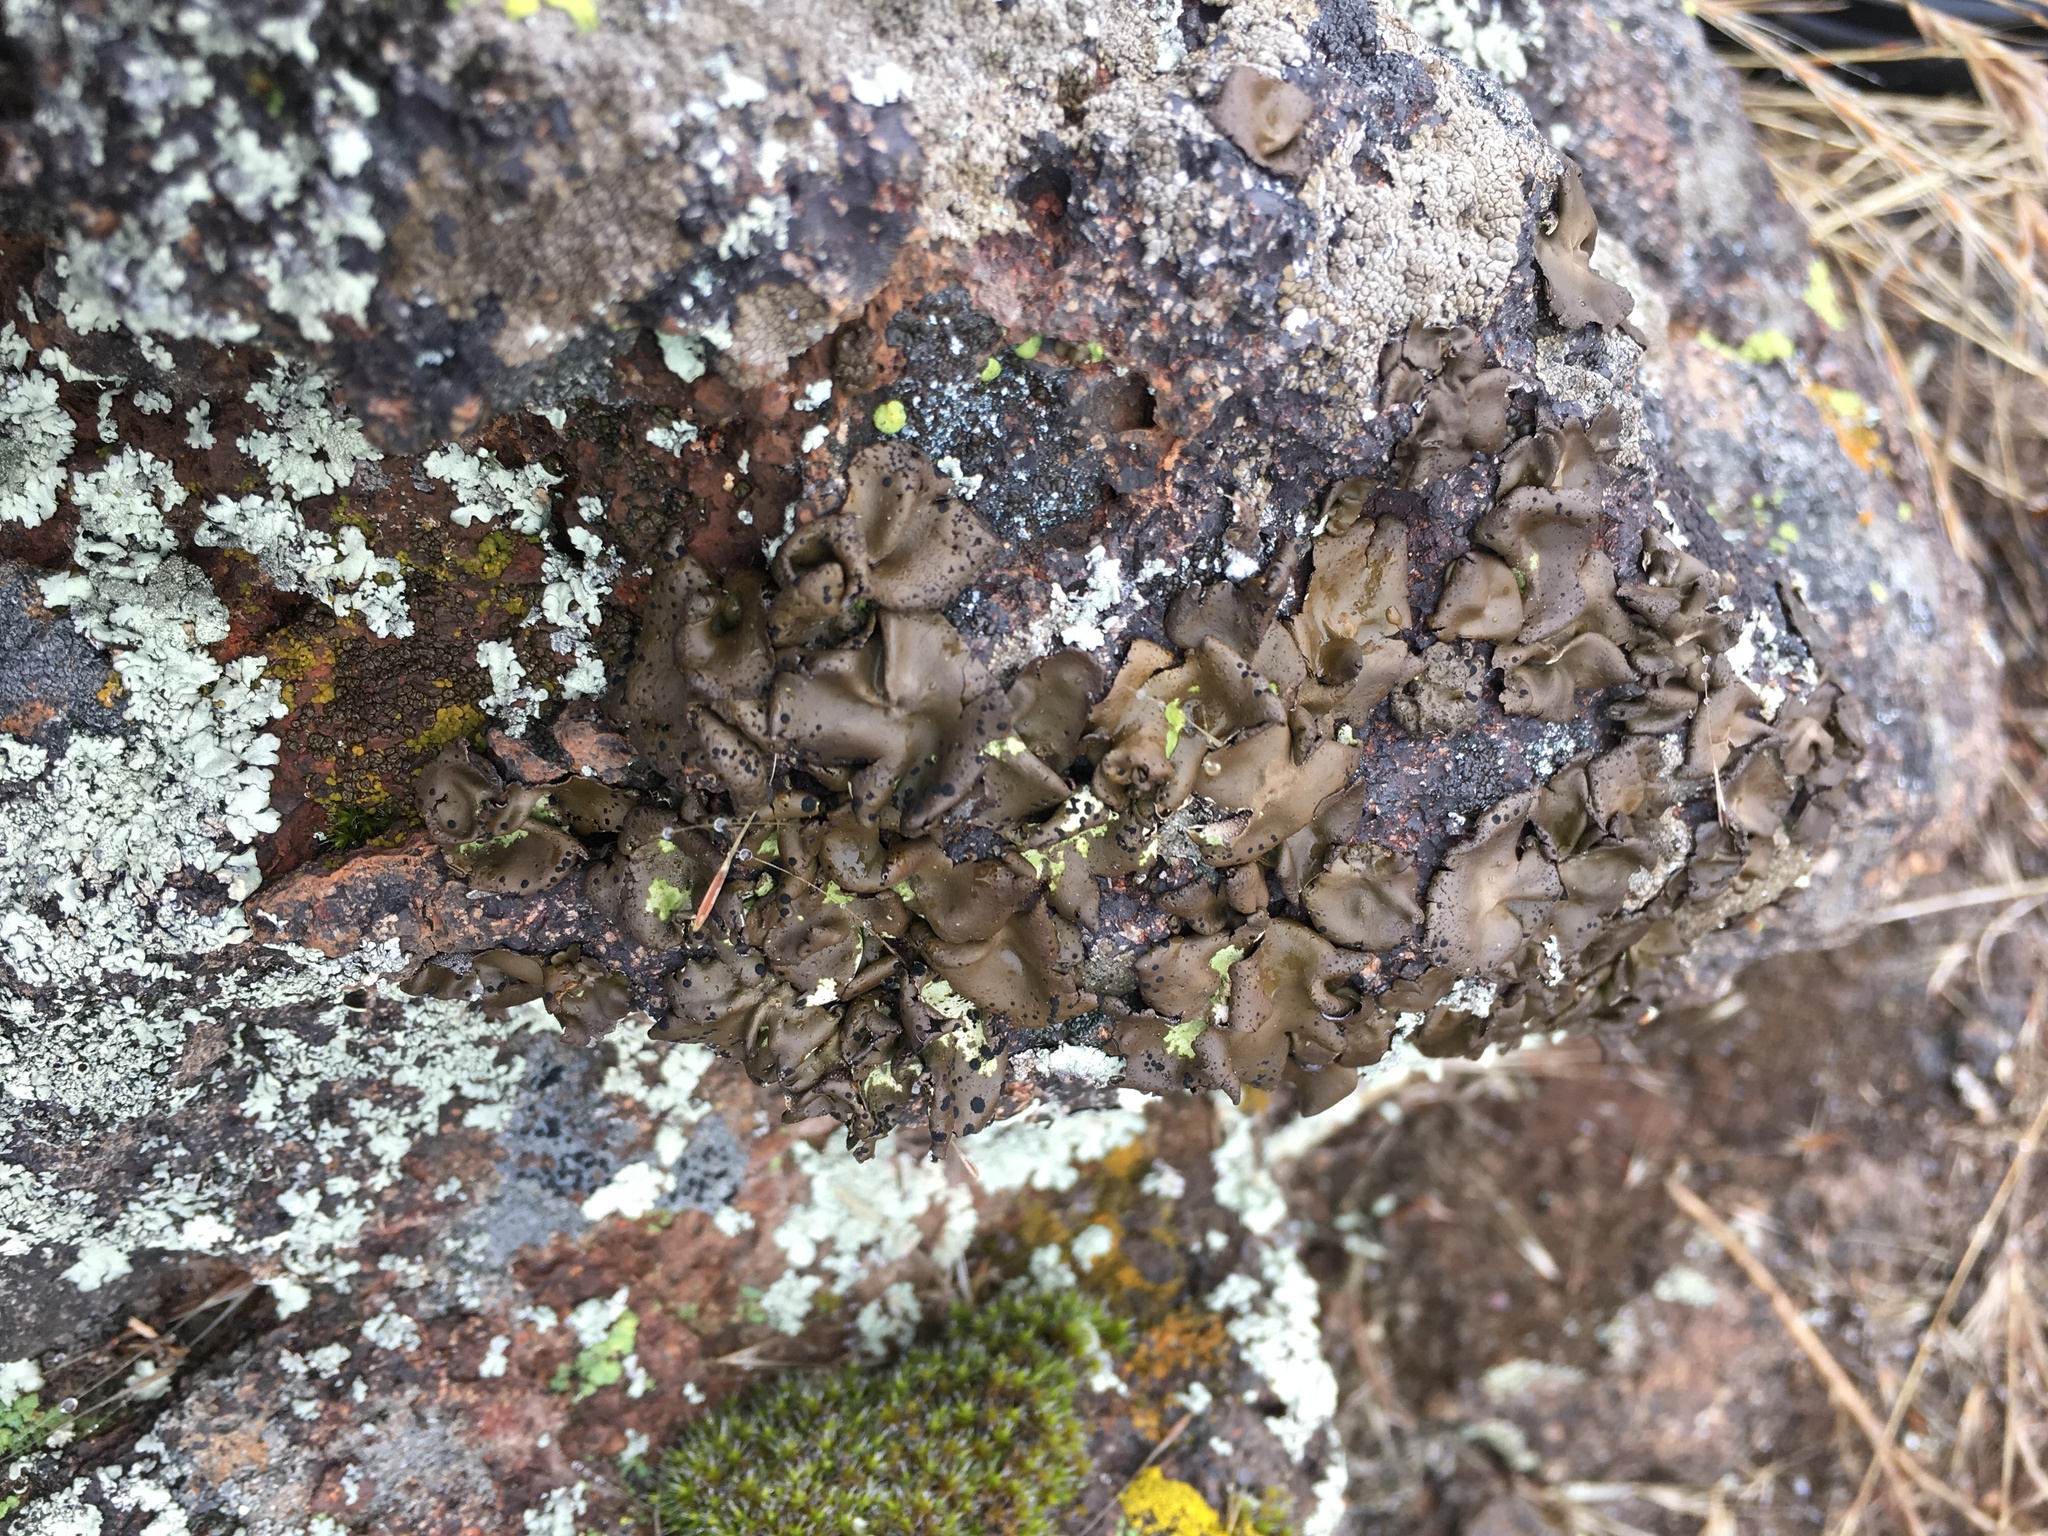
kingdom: Fungi
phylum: Ascomycota
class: Lecanoromycetes
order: Umbilicariales
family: Umbilicariaceae
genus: Umbilicaria
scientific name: Umbilicaria phaea
